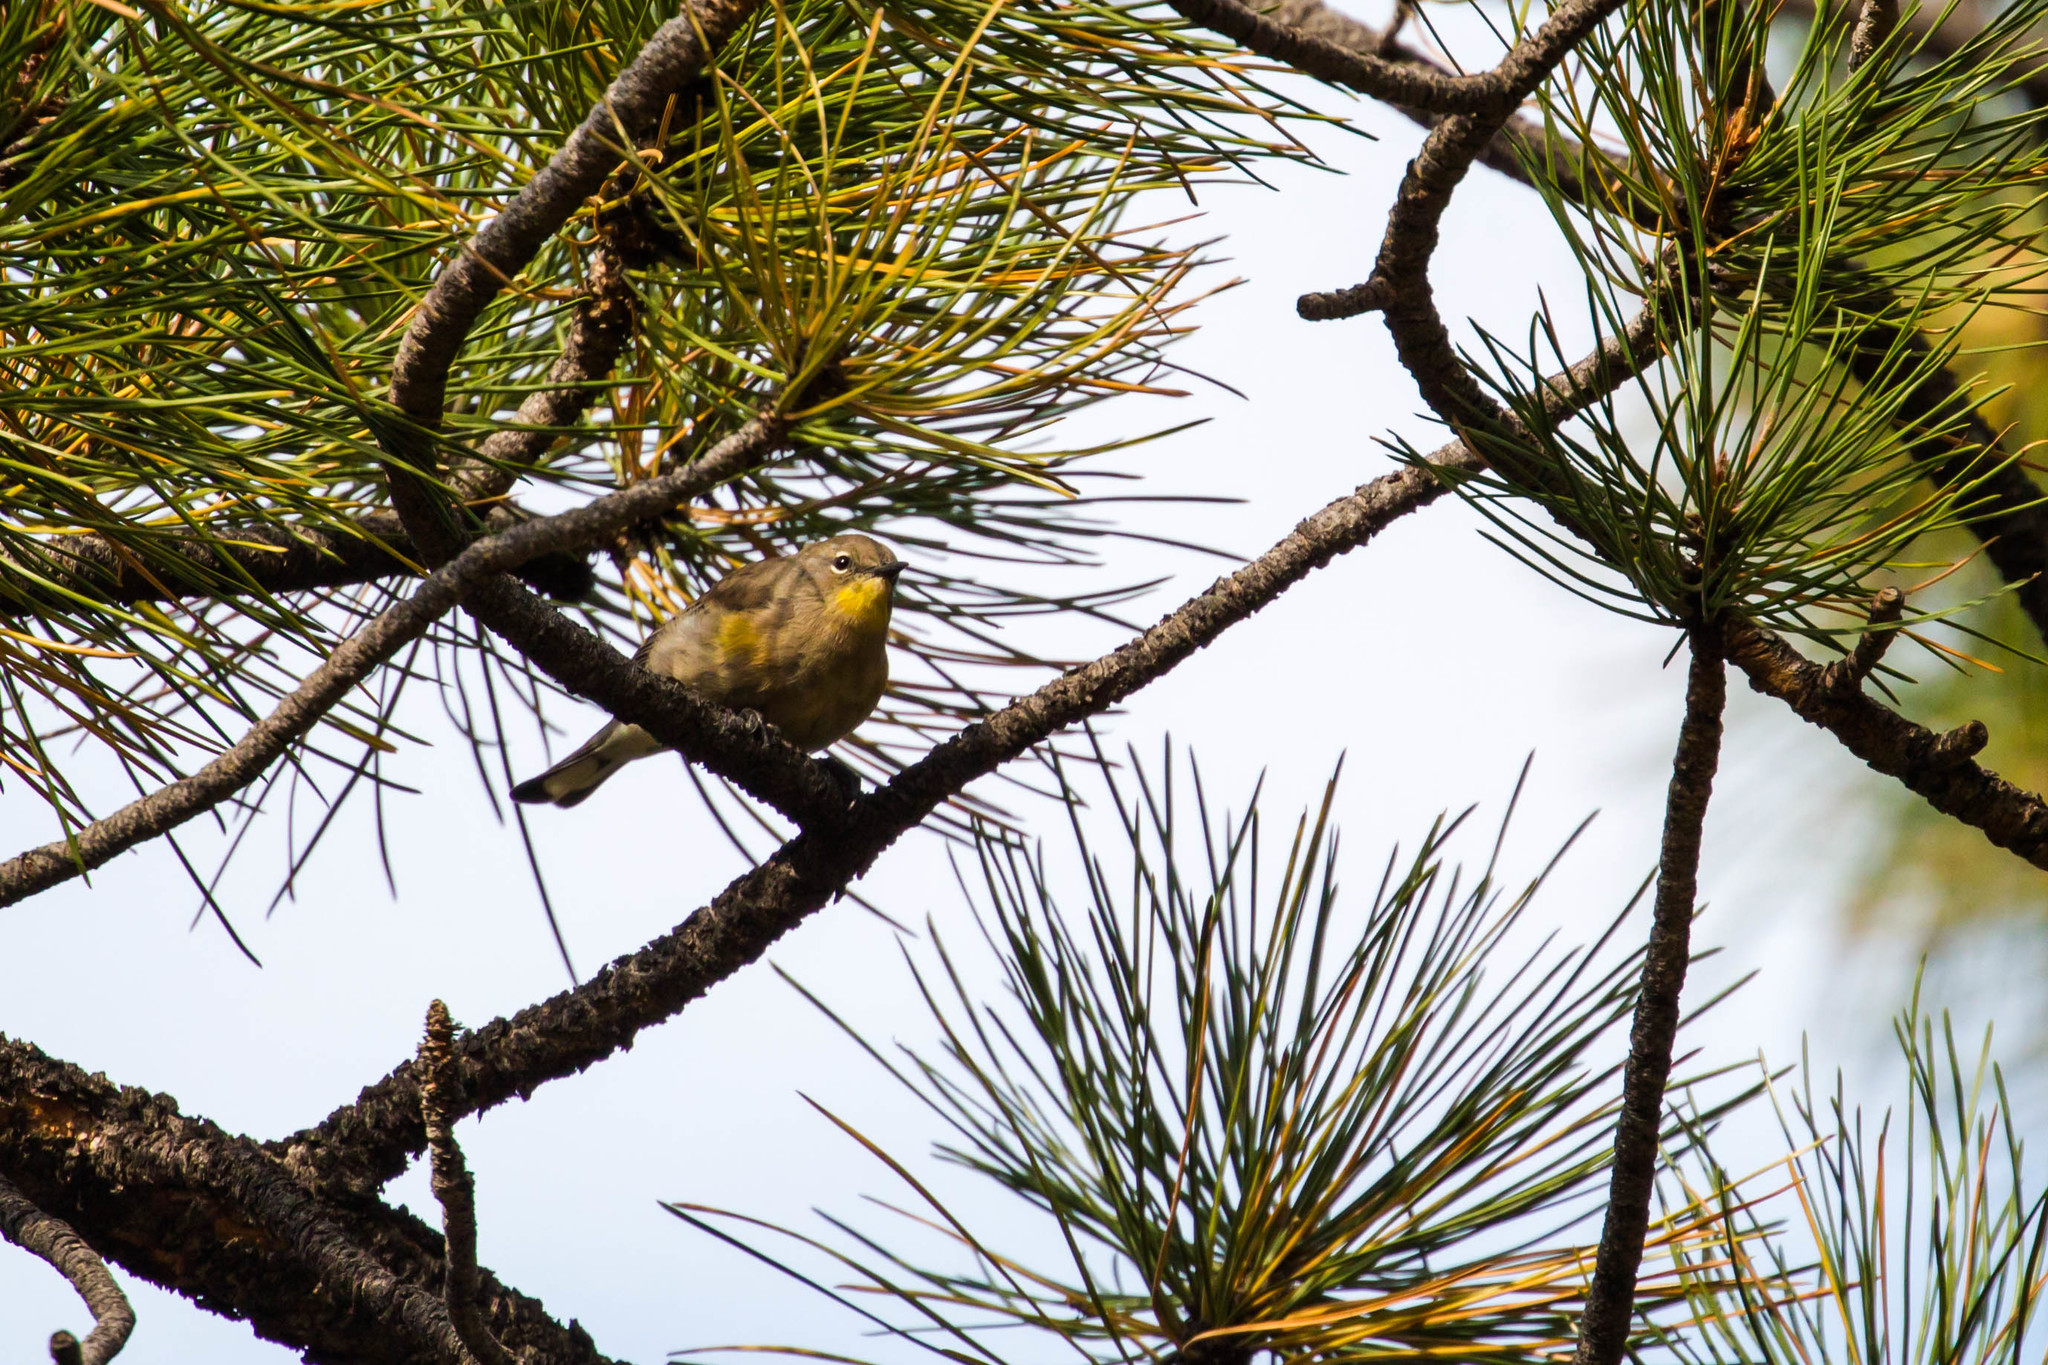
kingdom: Animalia
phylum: Chordata
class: Aves
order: Passeriformes
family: Parulidae
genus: Setophaga
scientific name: Setophaga coronata
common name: Myrtle warbler
